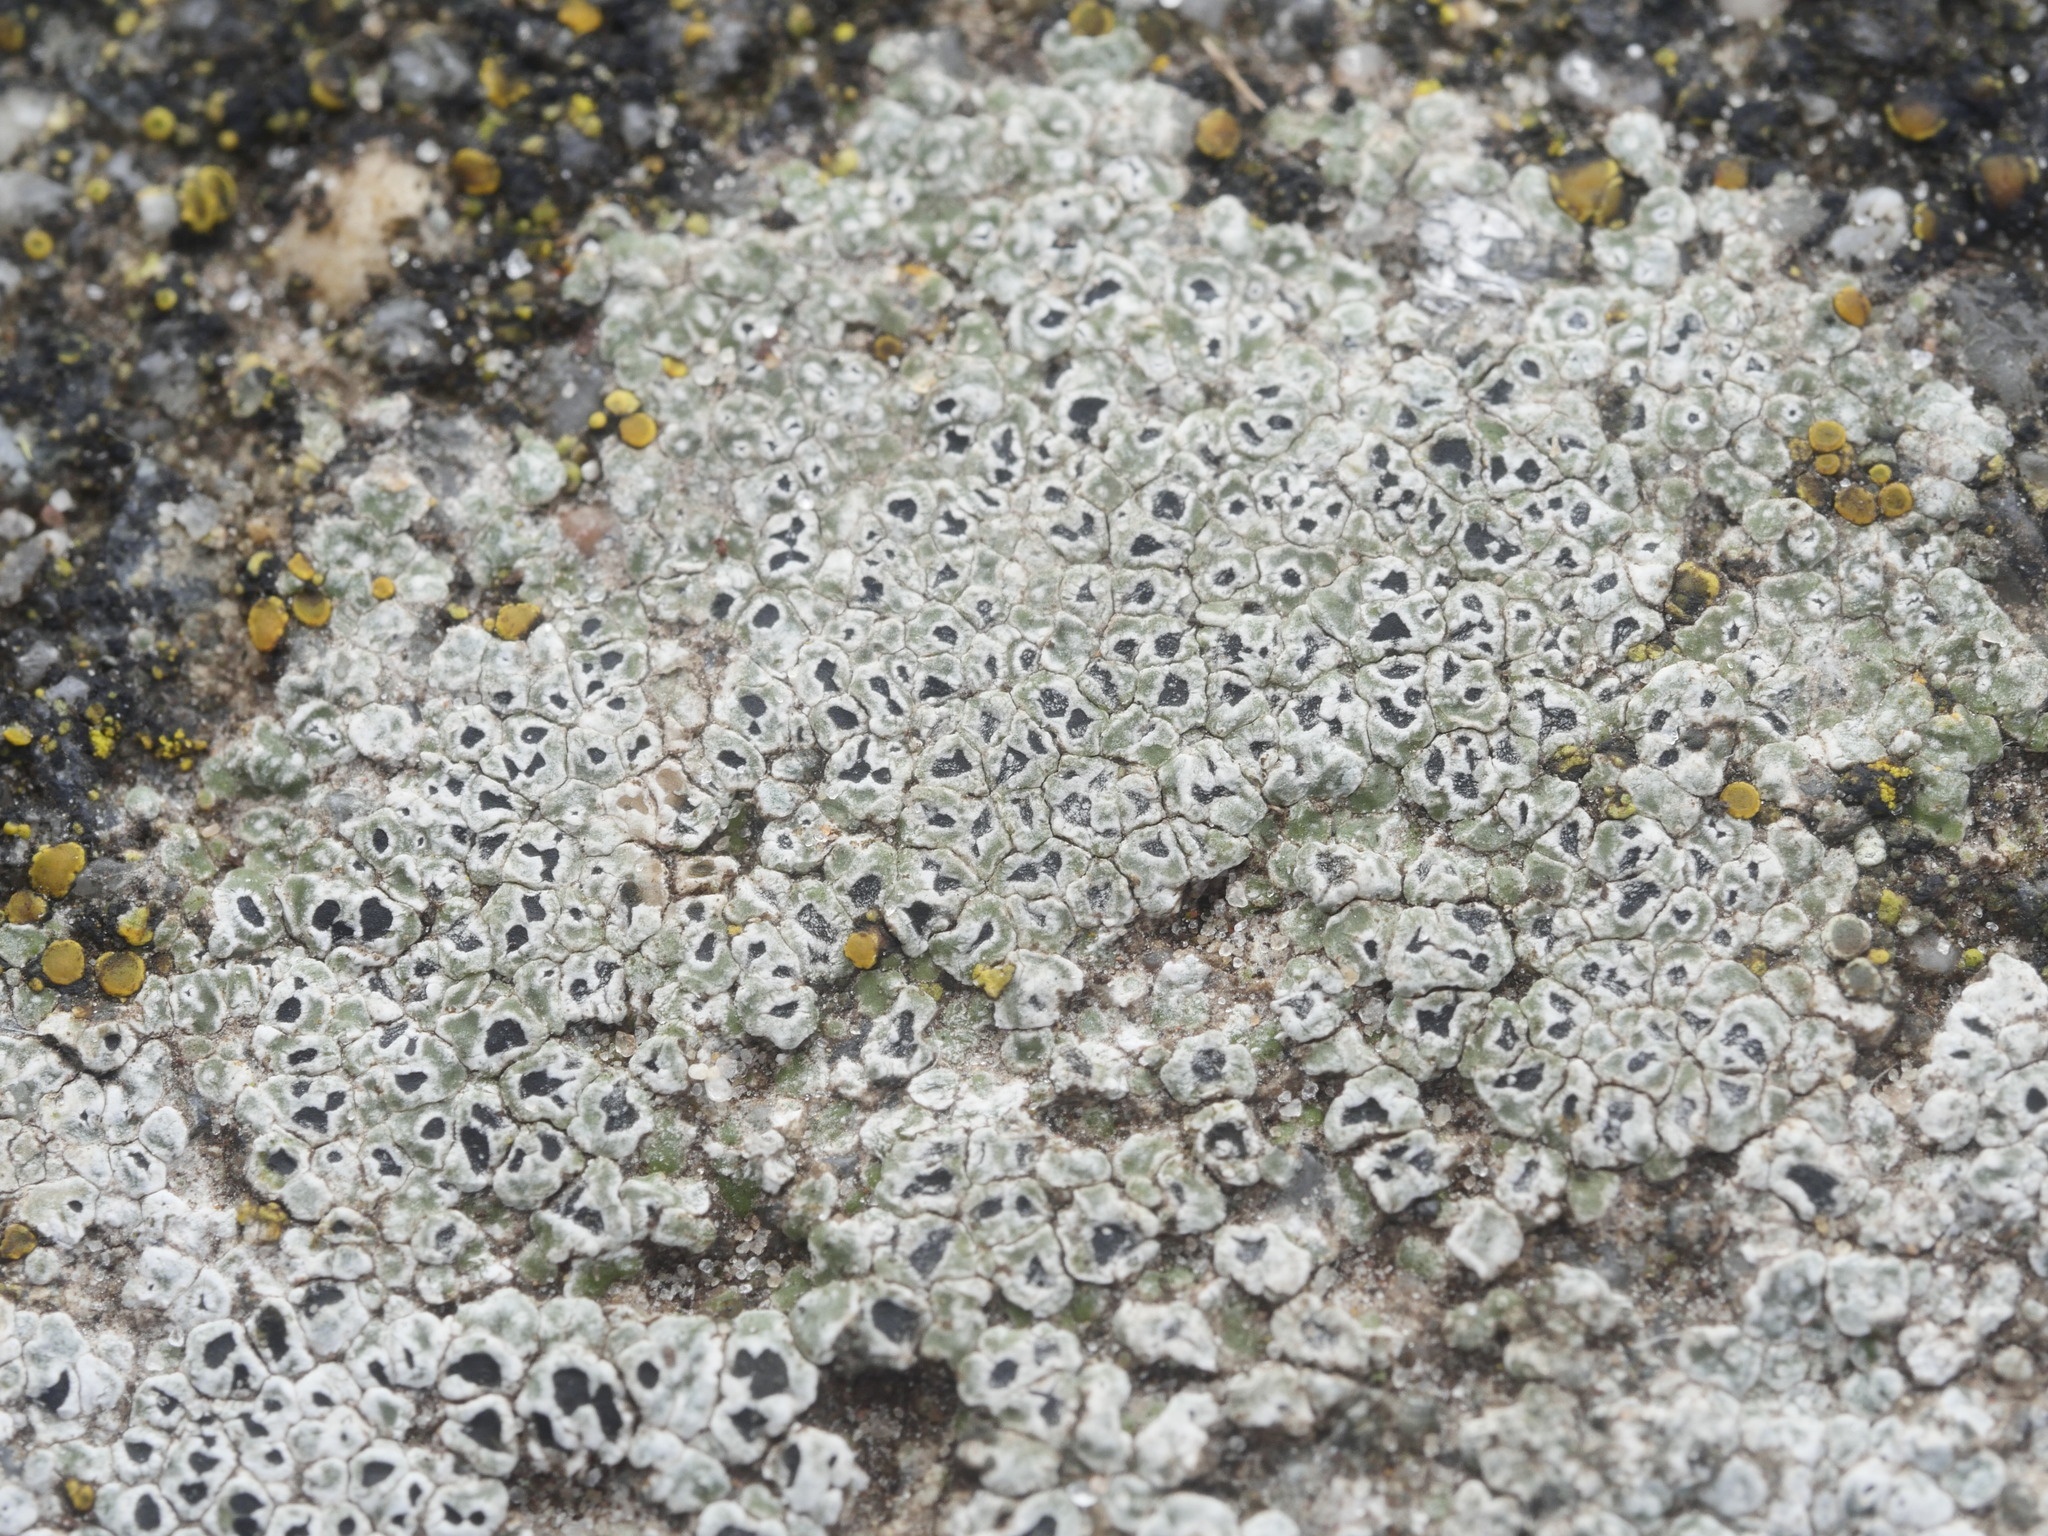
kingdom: Fungi
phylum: Ascomycota
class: Lecanoromycetes
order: Pertusariales
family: Megasporaceae
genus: Circinaria
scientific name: Circinaria contorta
